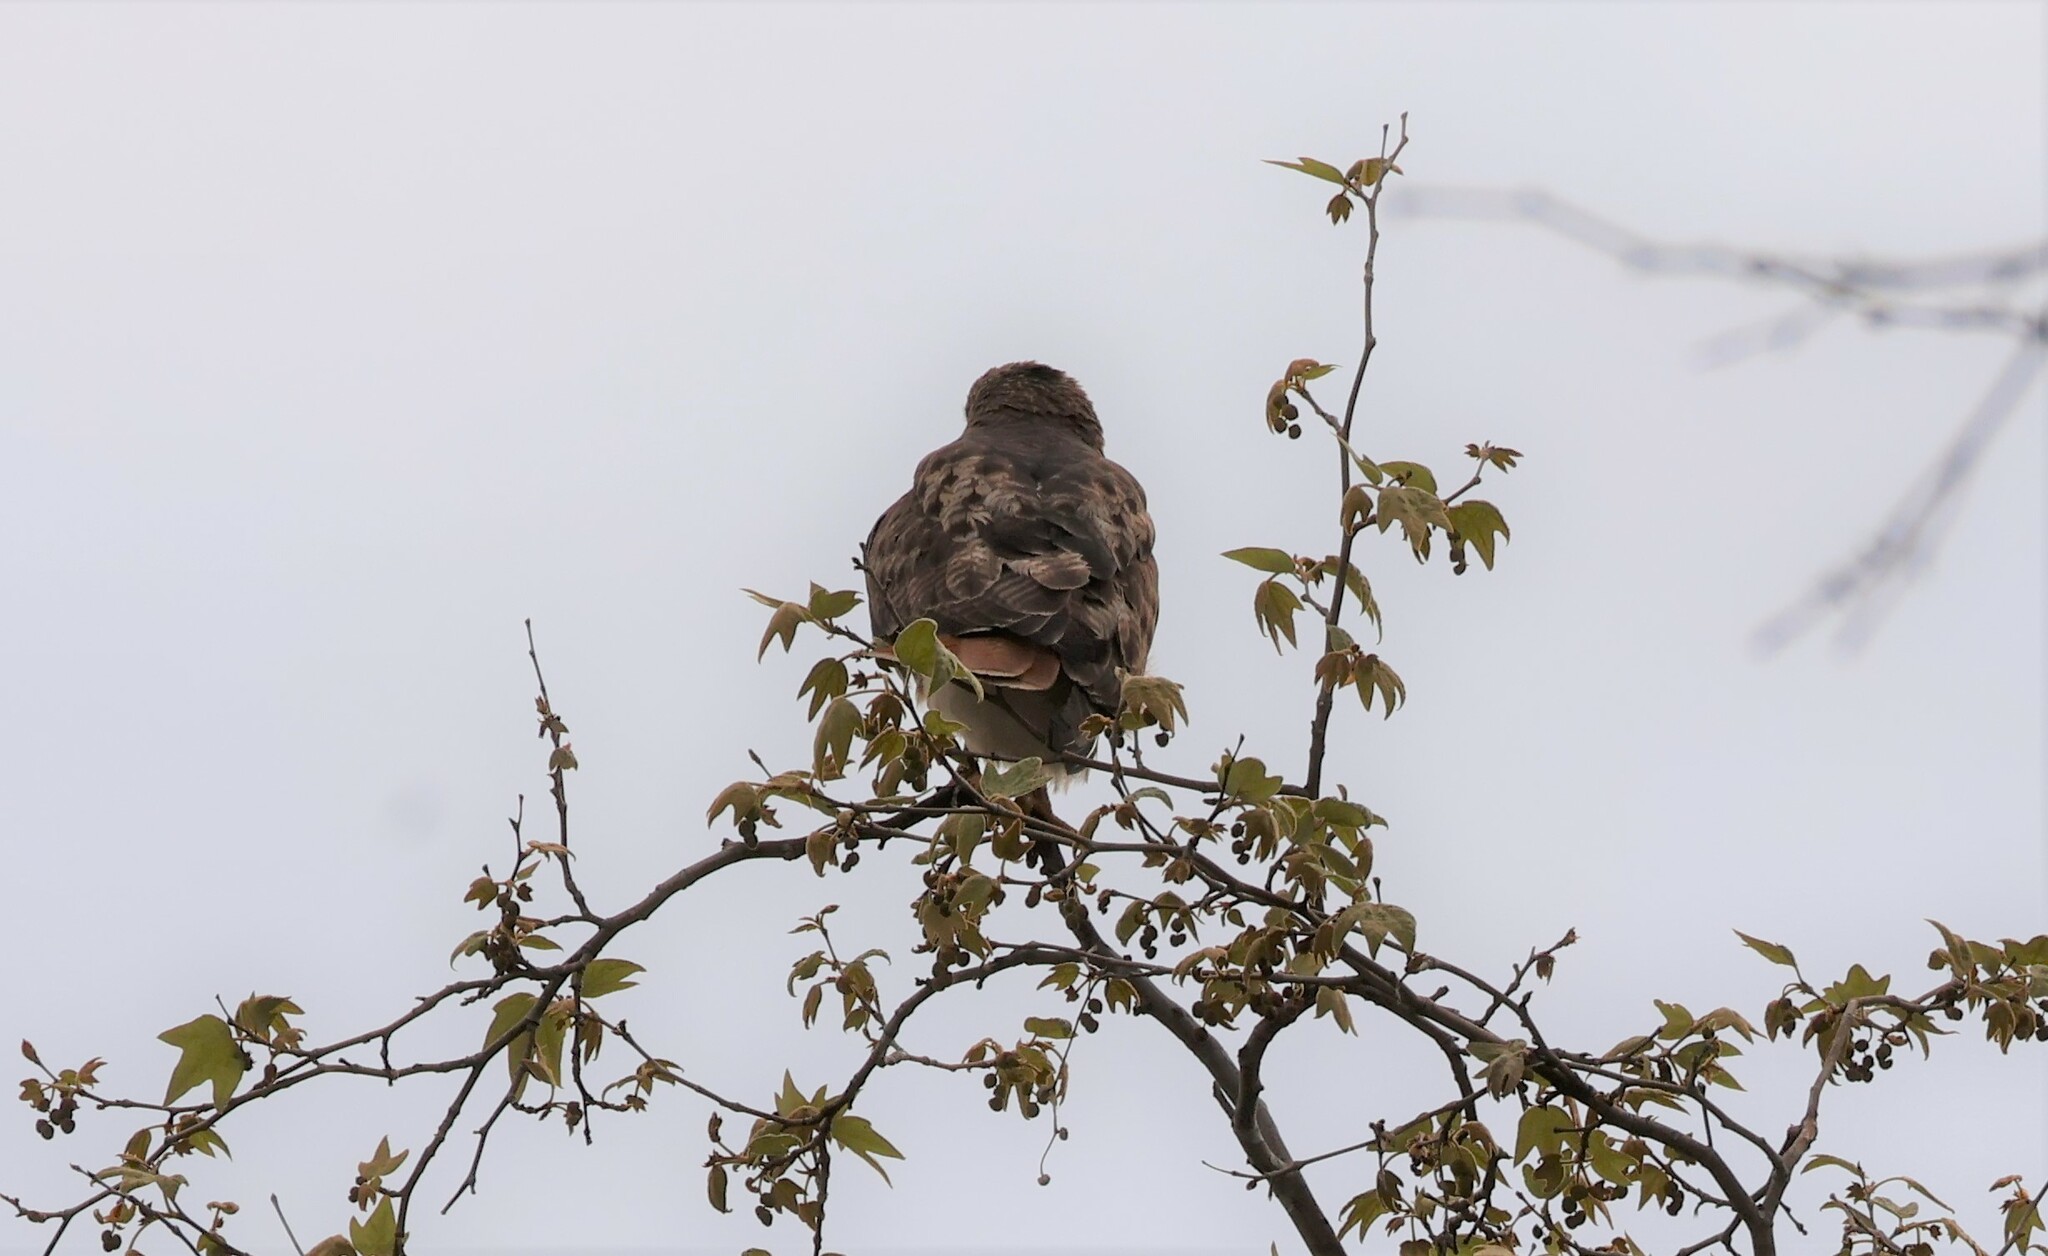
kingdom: Animalia
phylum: Chordata
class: Aves
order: Accipitriformes
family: Accipitridae
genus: Buteo
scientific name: Buteo jamaicensis
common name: Red-tailed hawk
